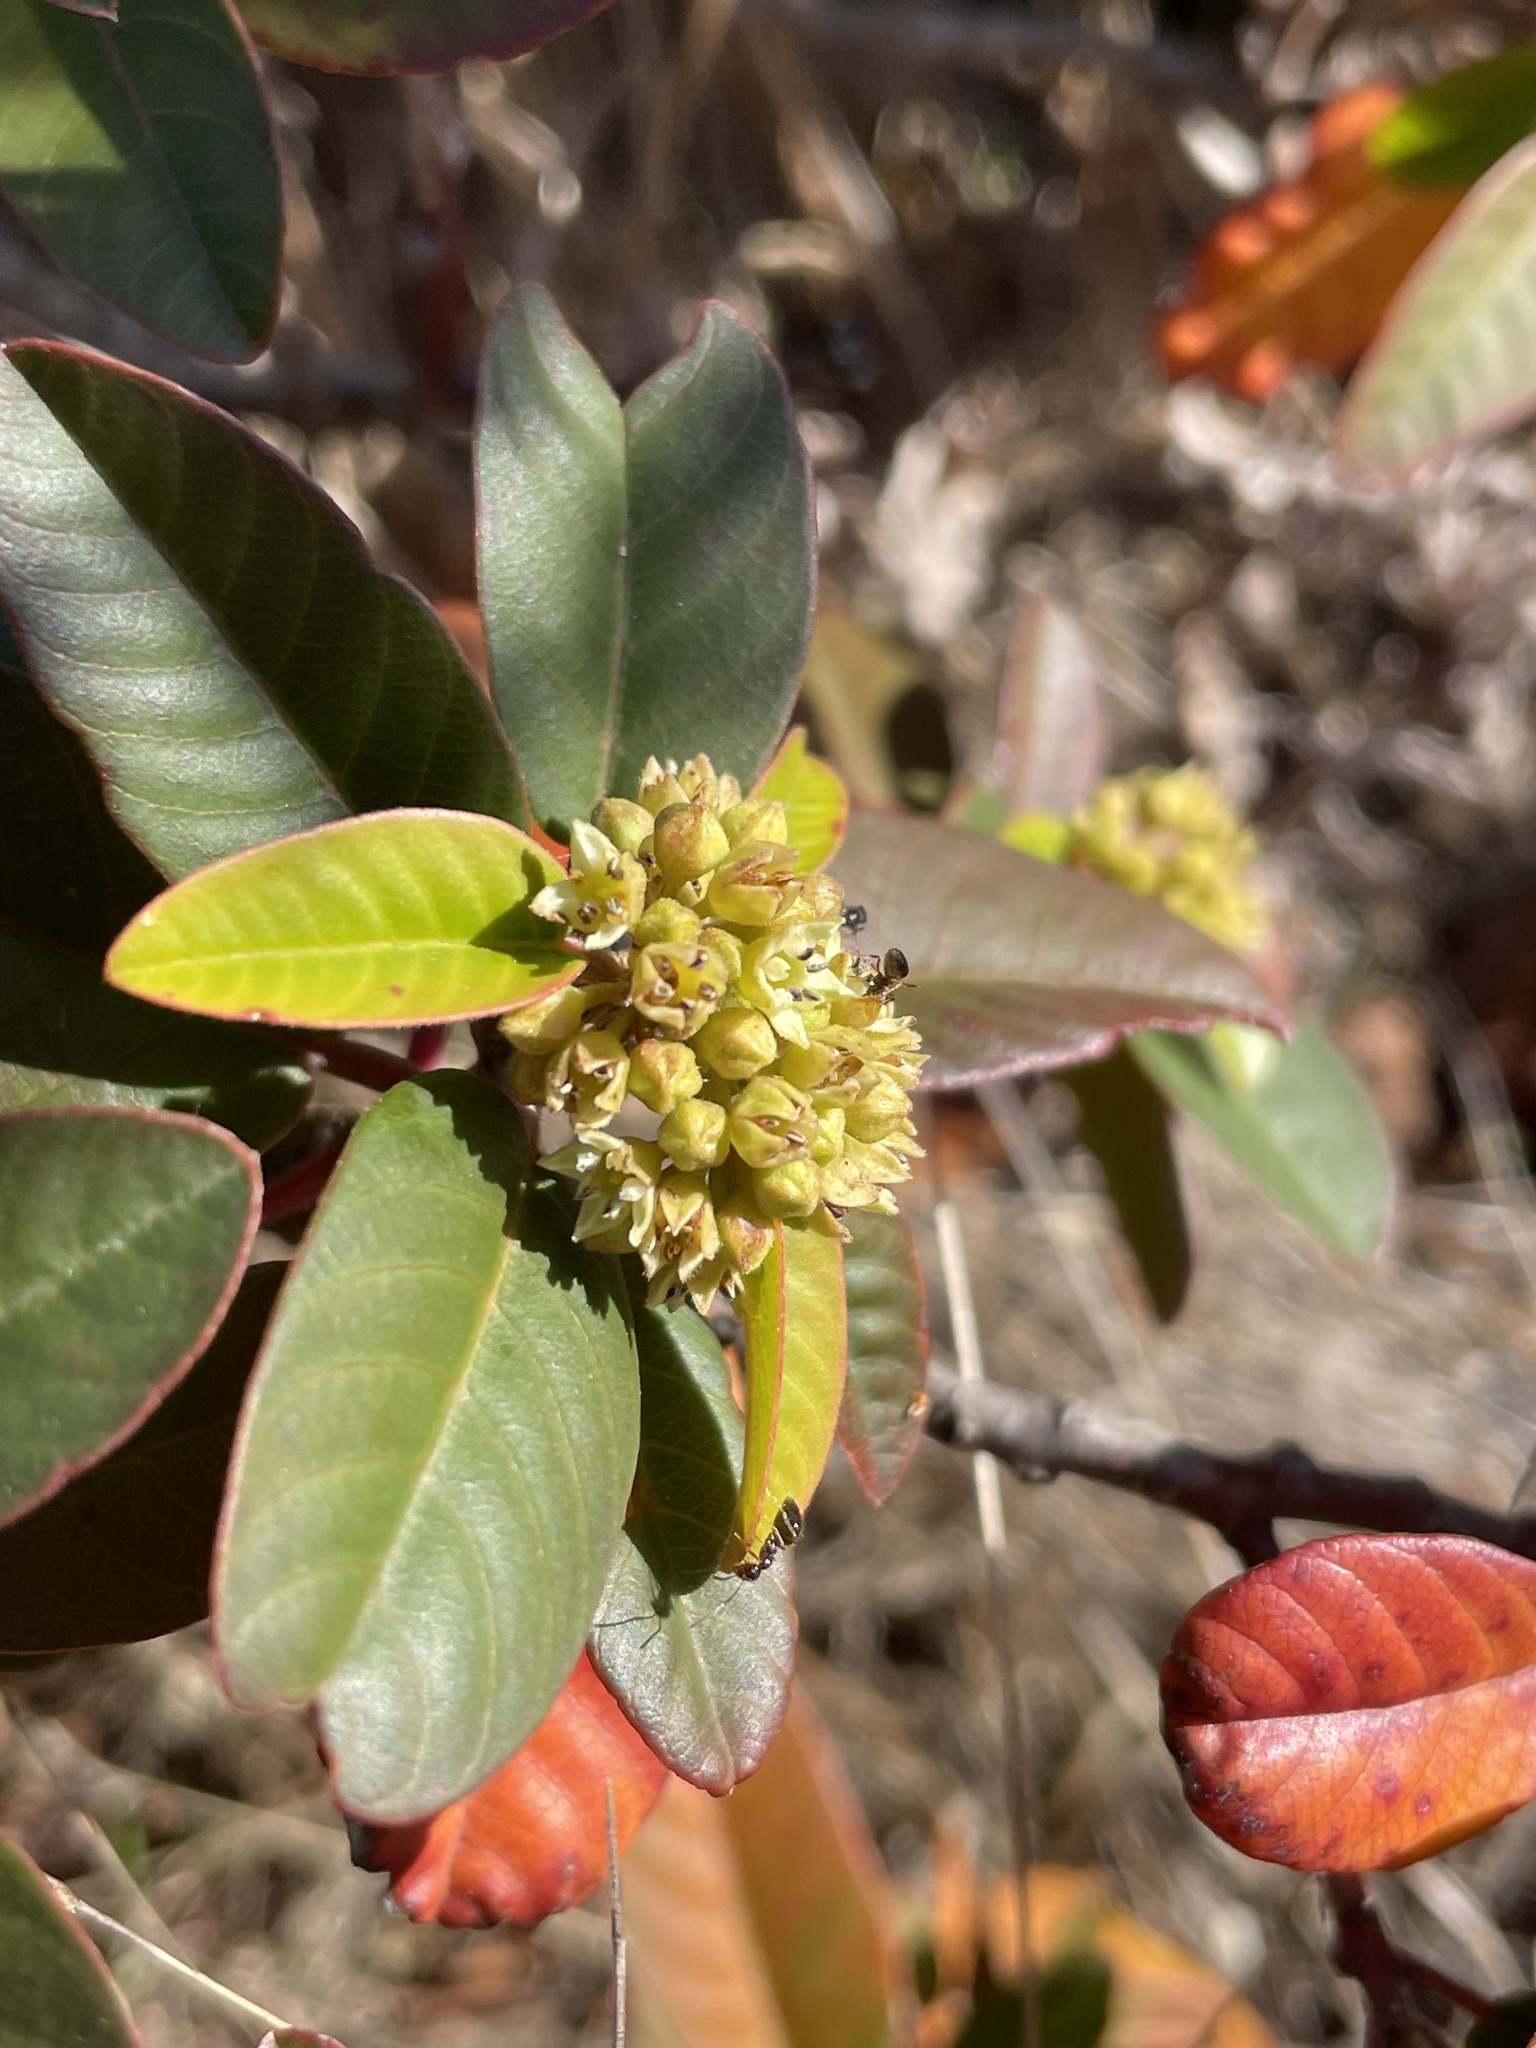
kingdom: Plantae
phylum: Tracheophyta
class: Magnoliopsida
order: Rosales
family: Rhamnaceae
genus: Frangula
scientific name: Frangula californica
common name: California buckthorn
